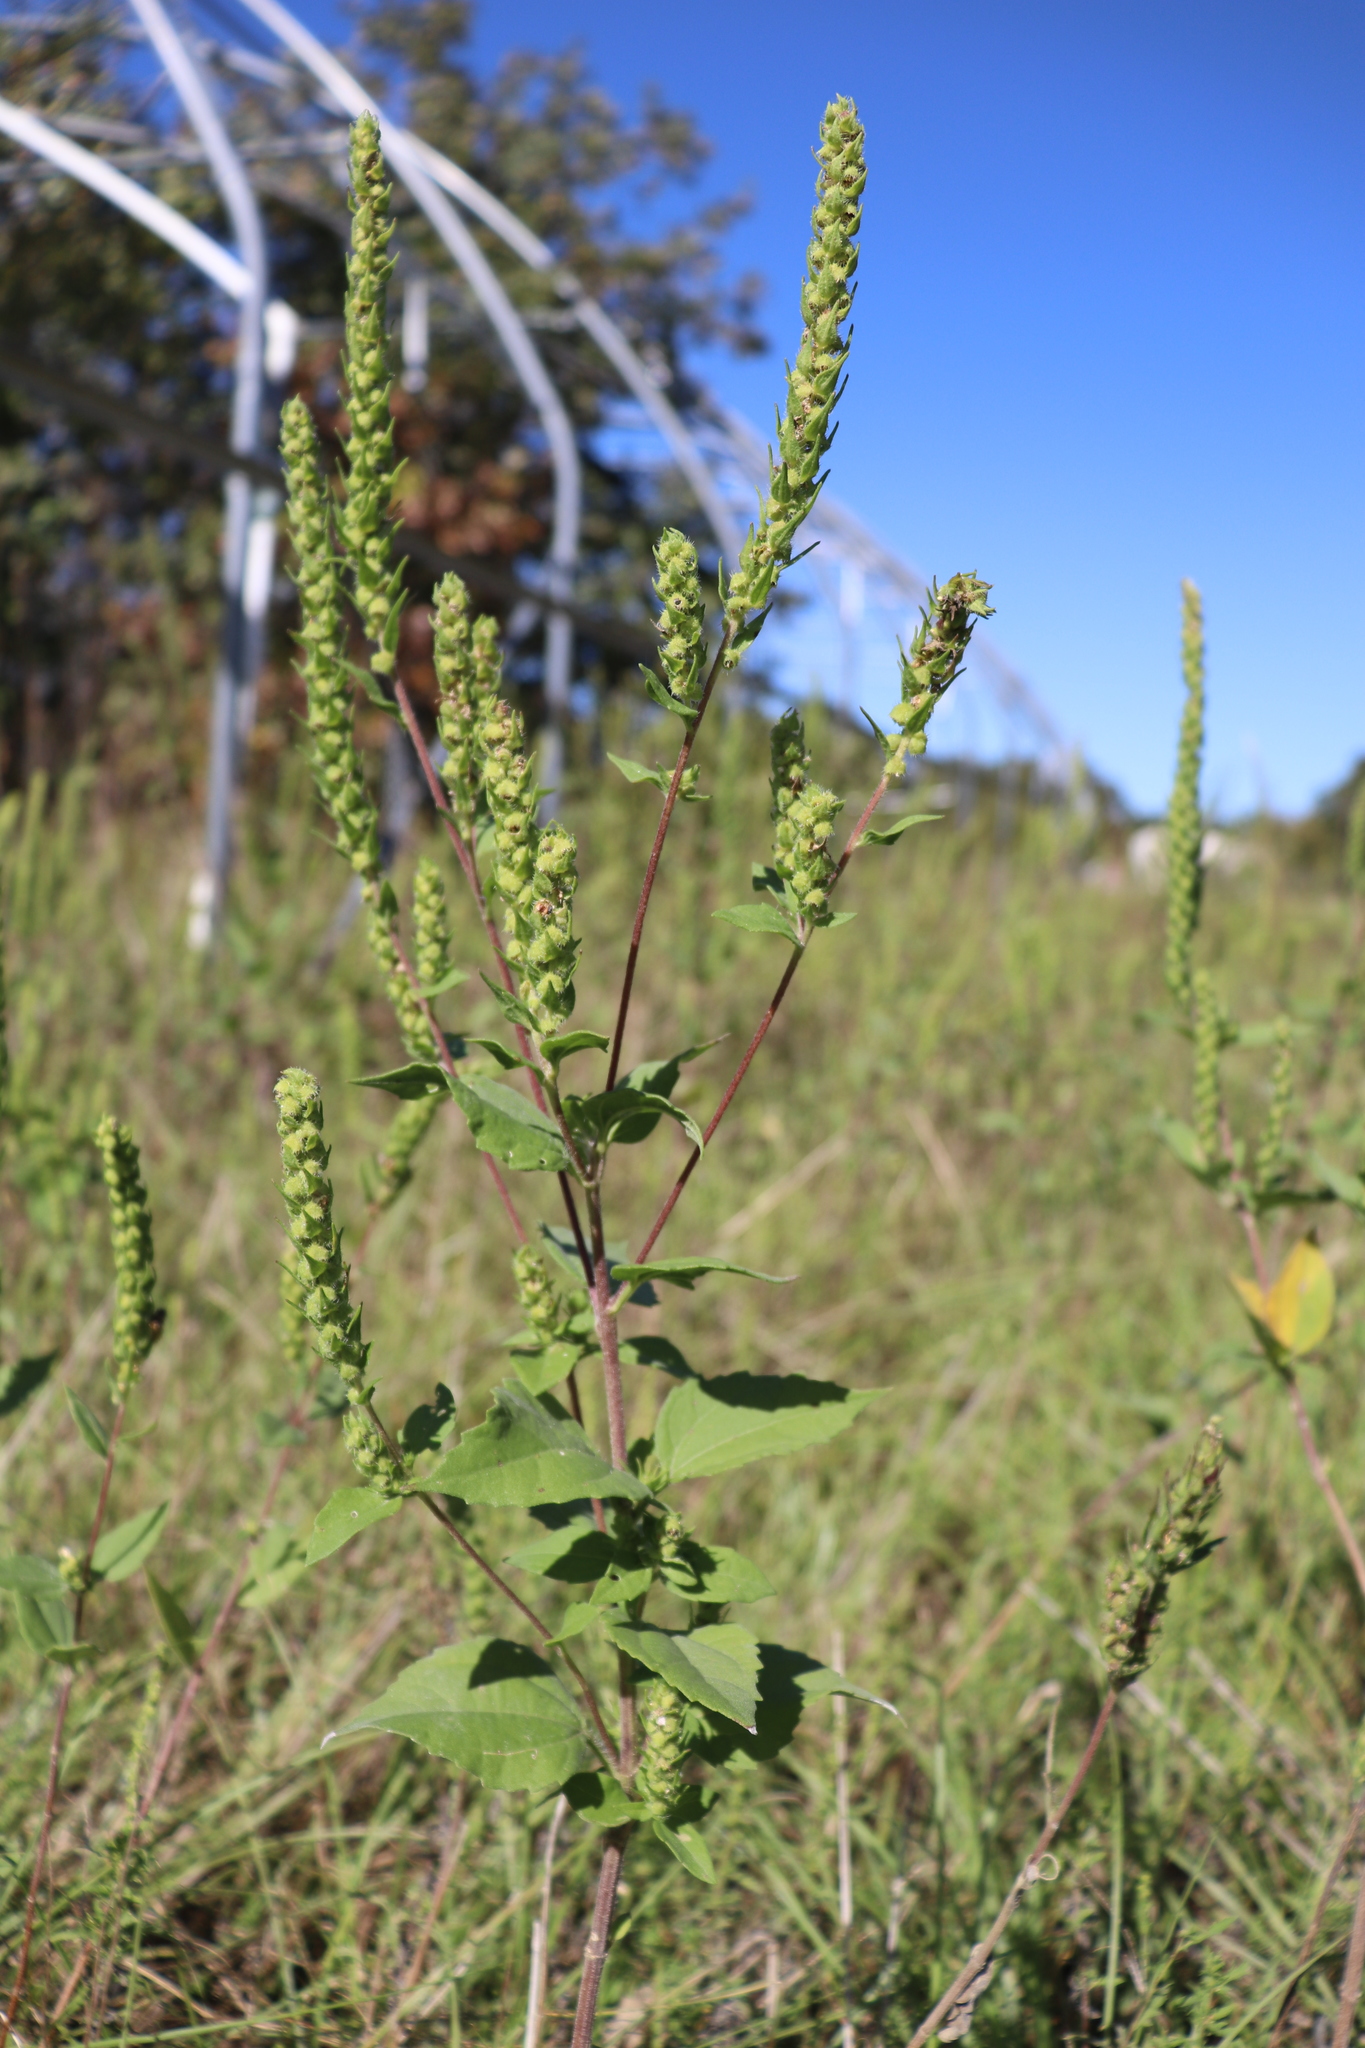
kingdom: Plantae
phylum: Tracheophyta
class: Magnoliopsida
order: Asterales
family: Asteraceae
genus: Iva
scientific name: Iva annua
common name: Marsh-elder
